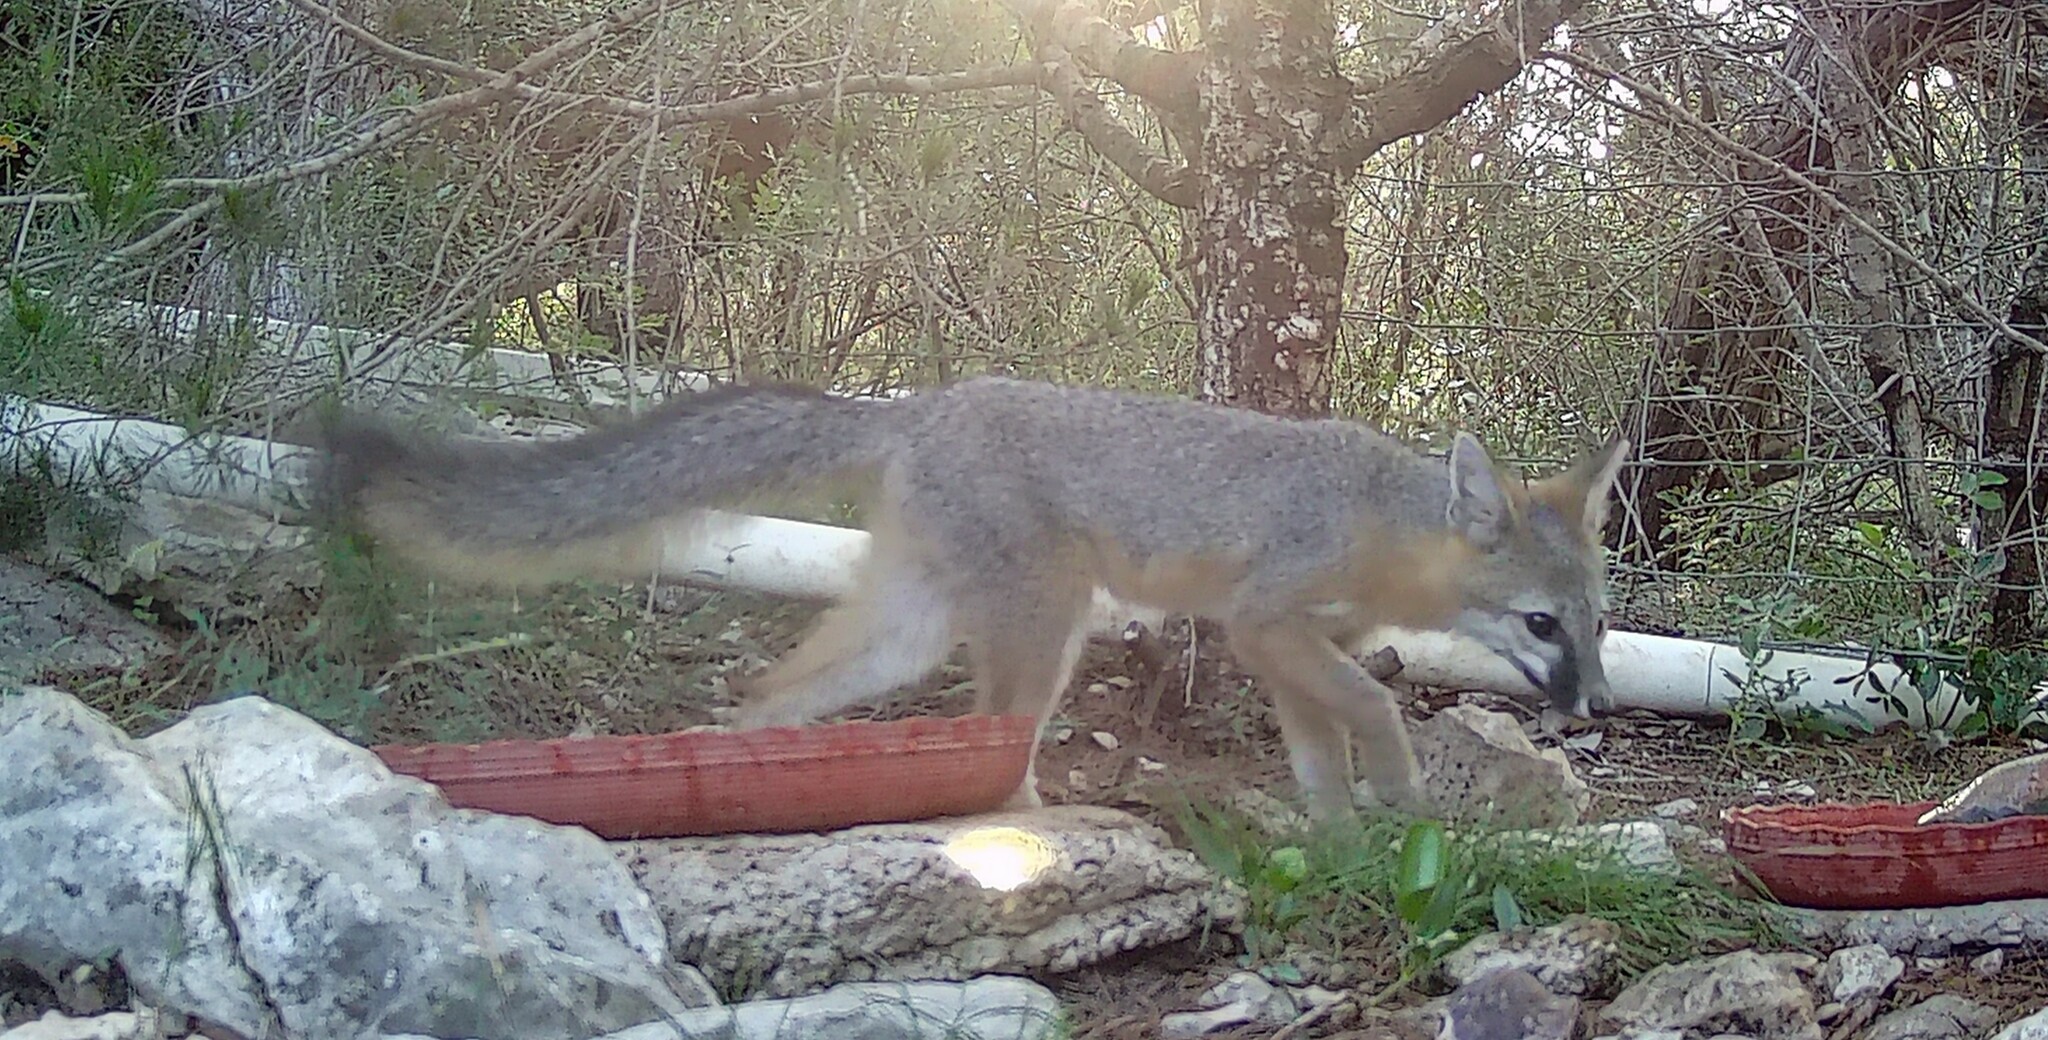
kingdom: Animalia
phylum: Chordata
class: Mammalia
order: Carnivora
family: Canidae
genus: Urocyon
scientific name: Urocyon cinereoargenteus
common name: Gray fox
